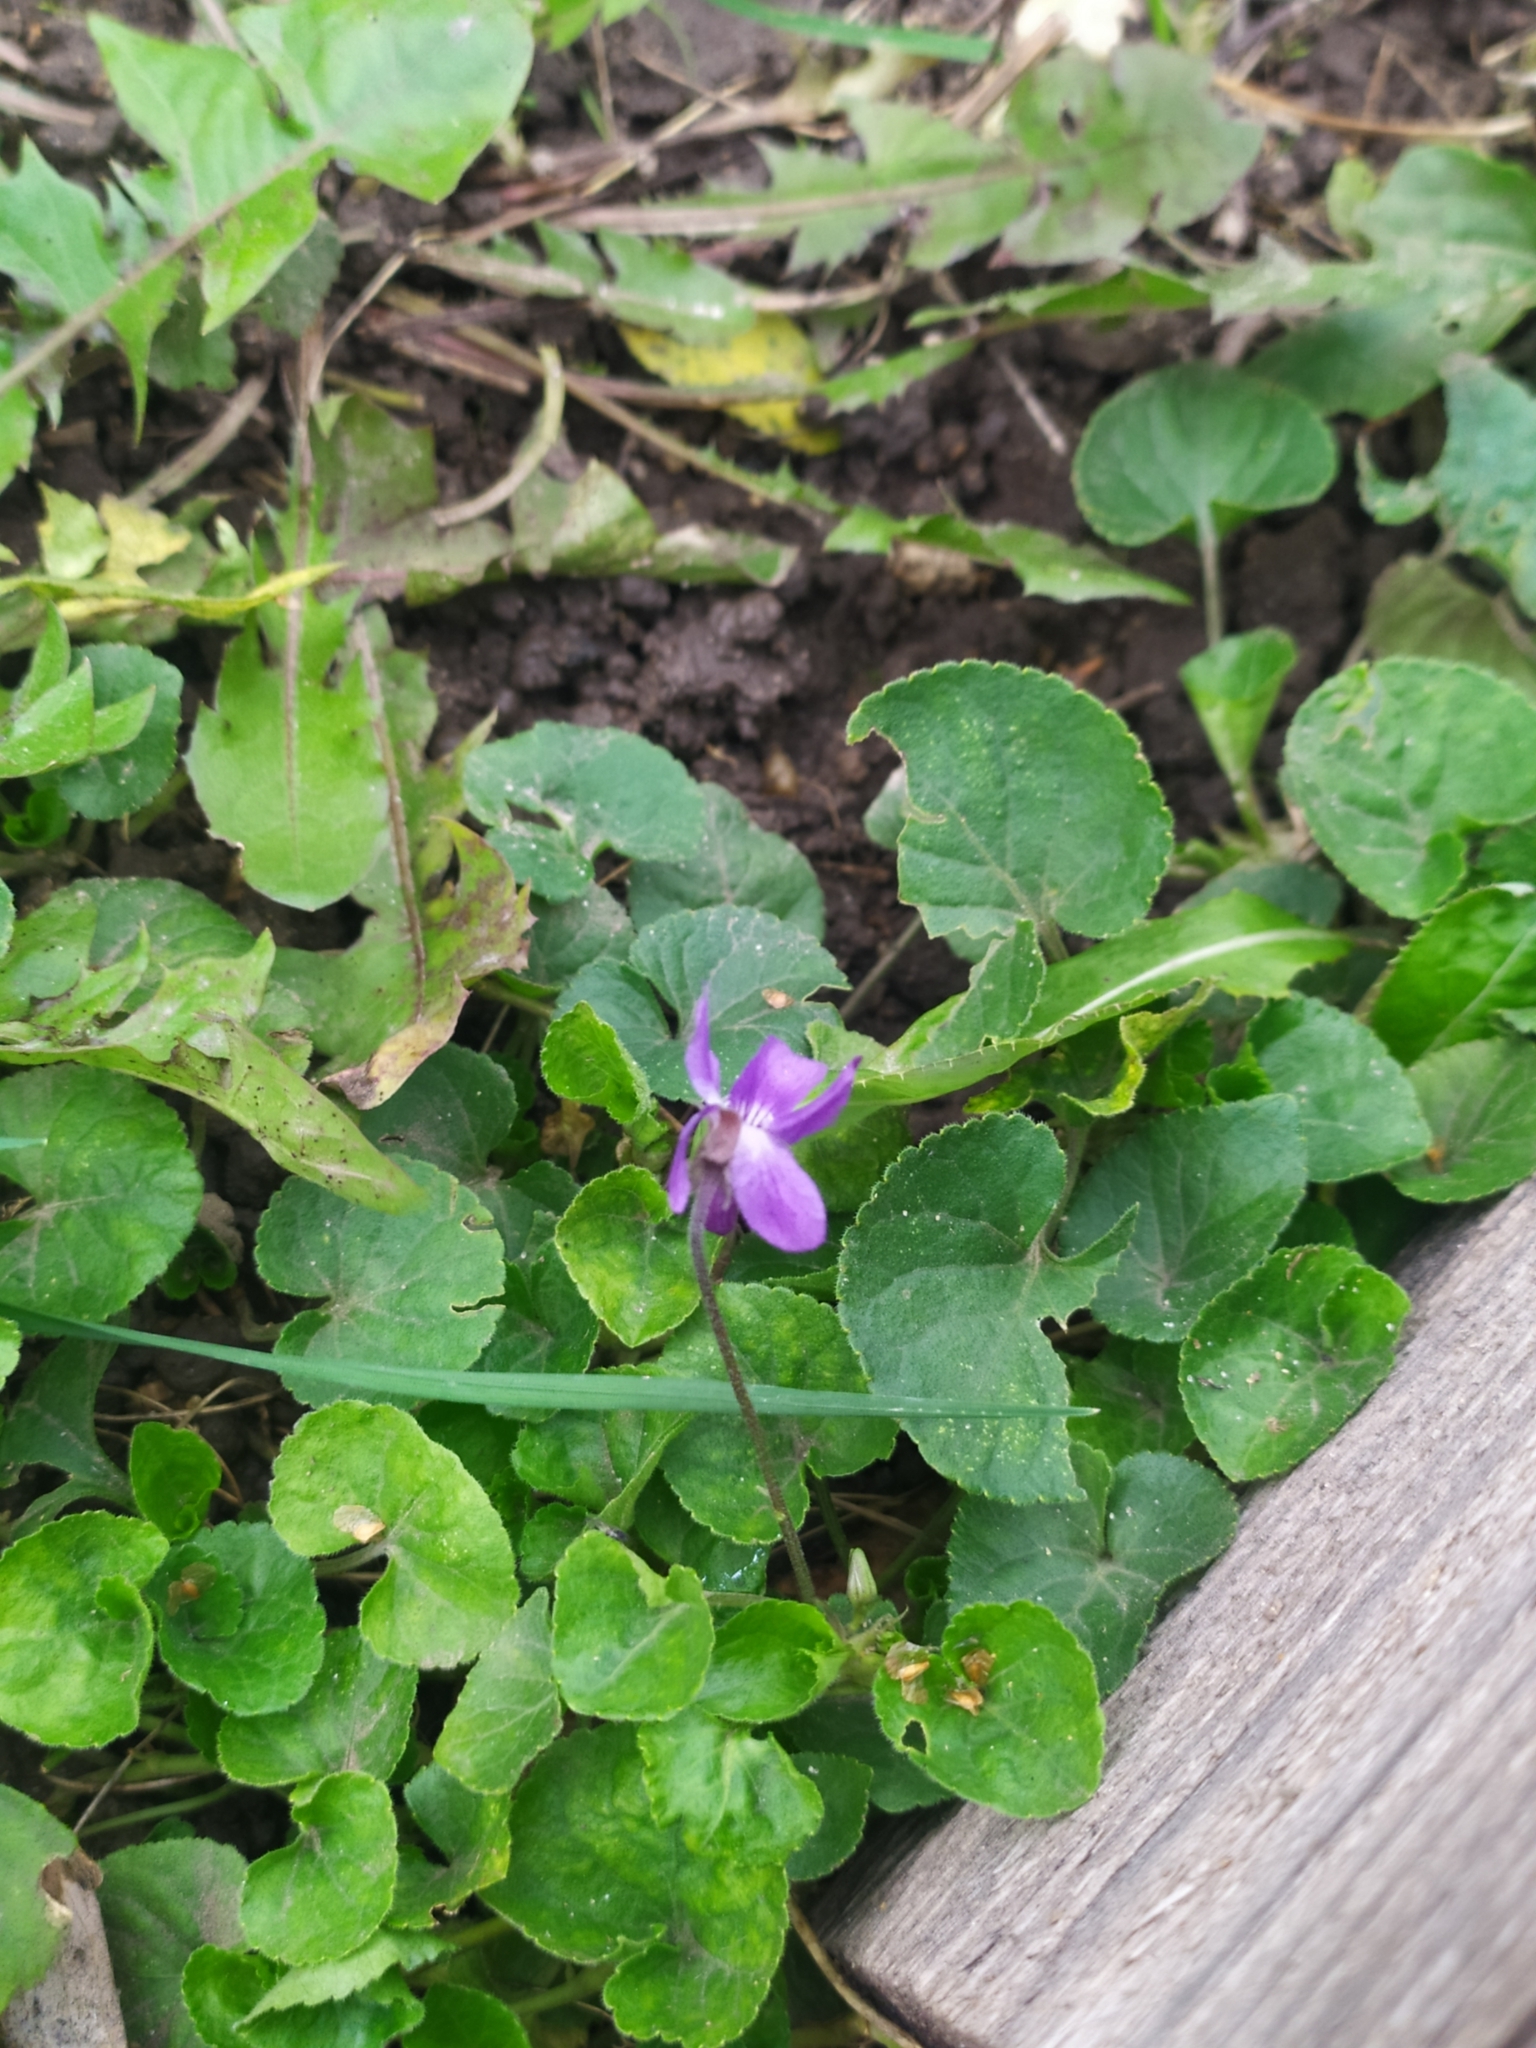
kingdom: Plantae
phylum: Tracheophyta
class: Magnoliopsida
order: Malpighiales
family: Violaceae
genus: Viola
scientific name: Viola odorata
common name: Sweet violet
